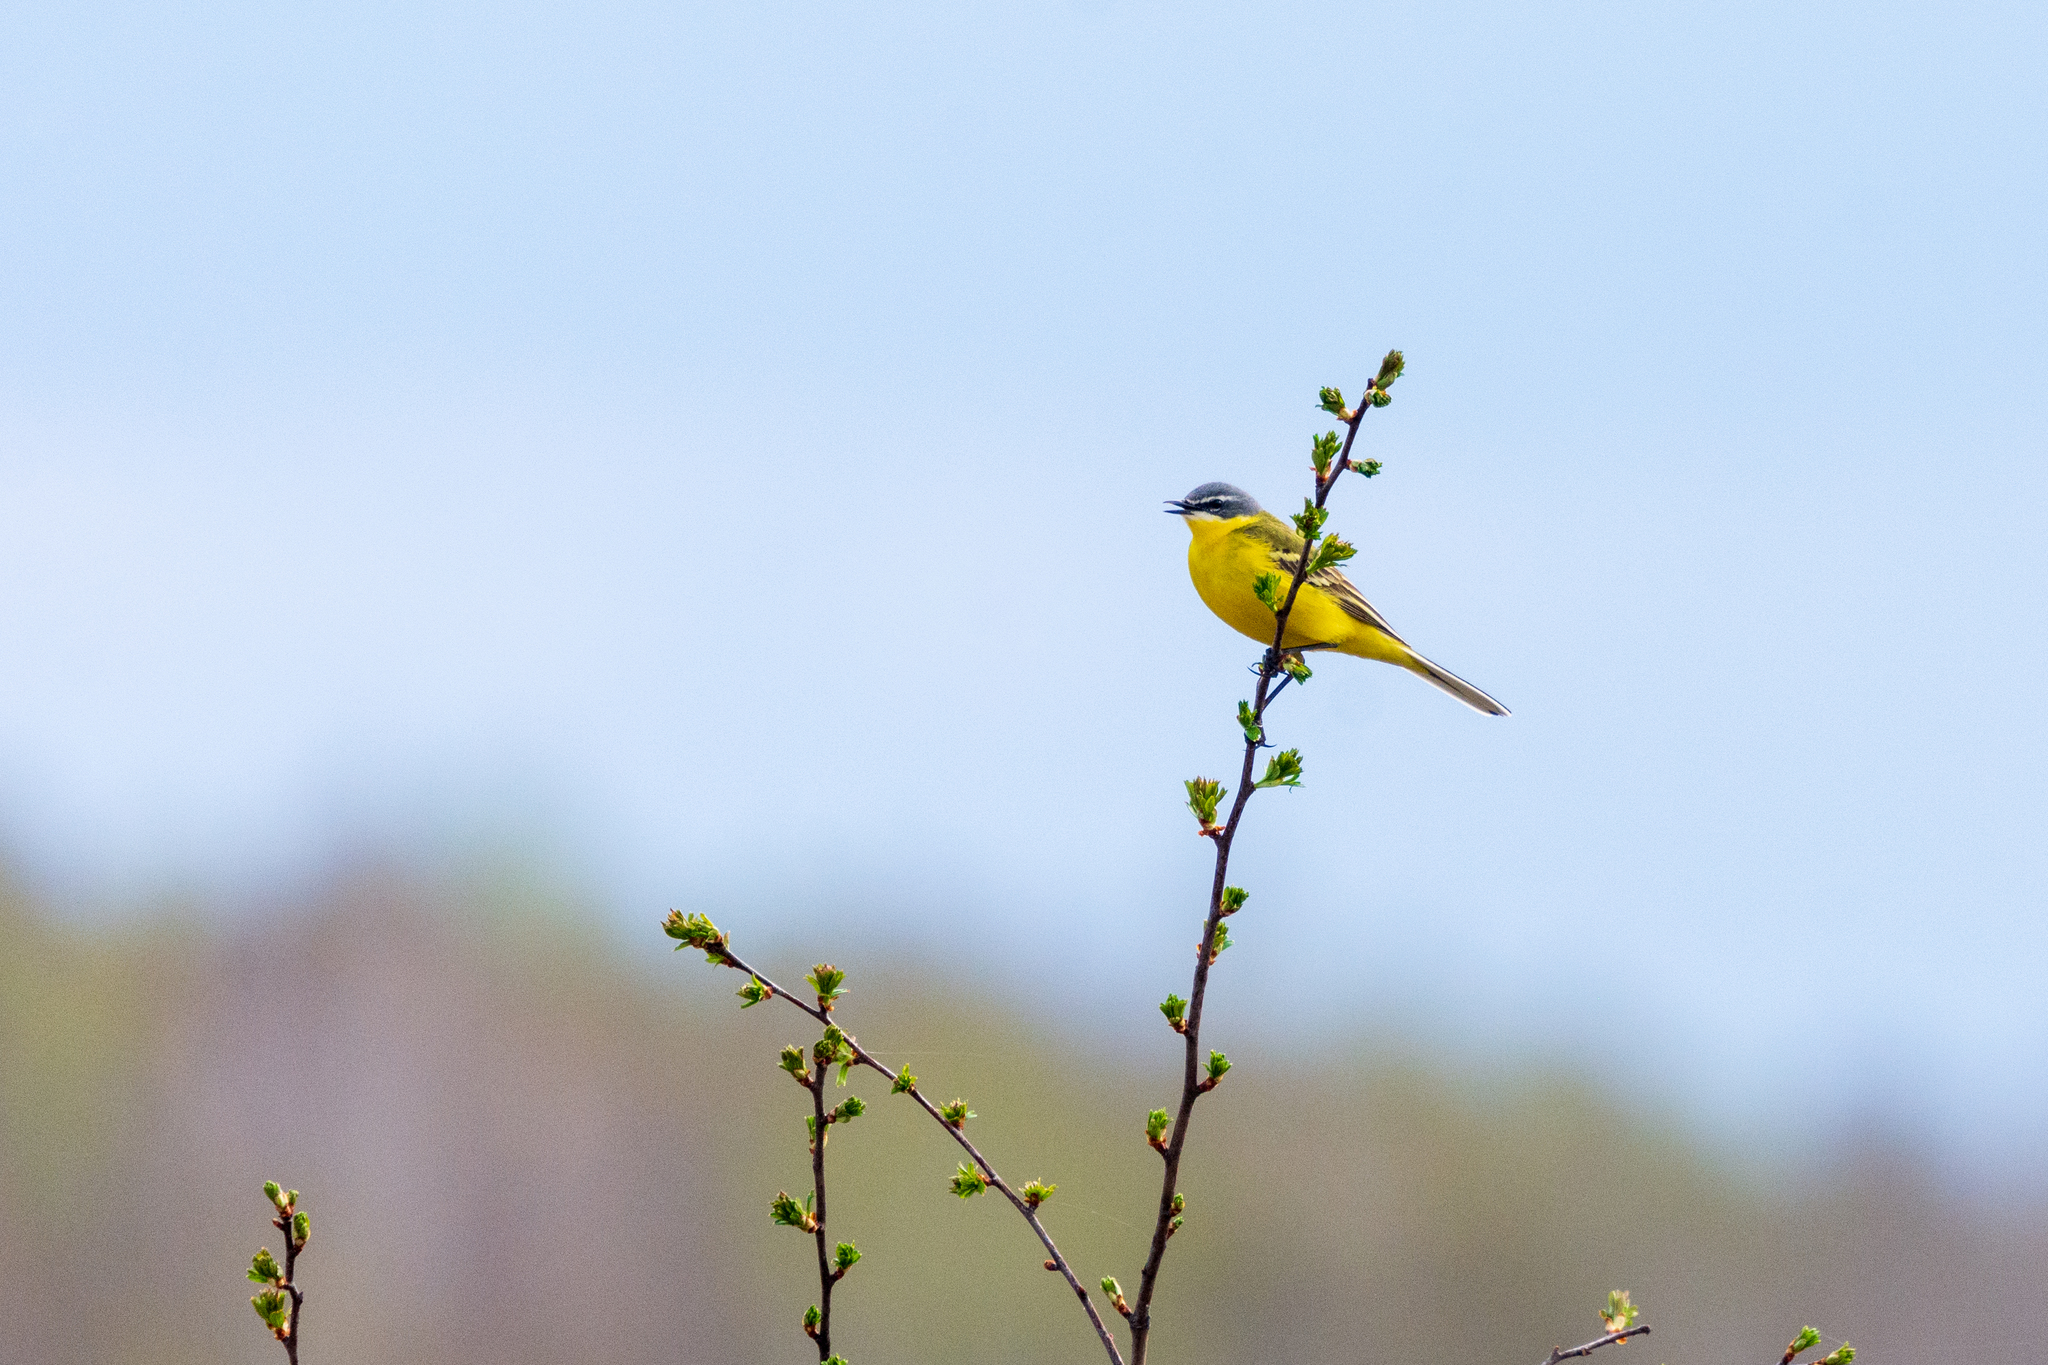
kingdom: Animalia
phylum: Chordata
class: Aves
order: Passeriformes
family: Motacillidae
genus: Motacilla
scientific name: Motacilla flava
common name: Western yellow wagtail
